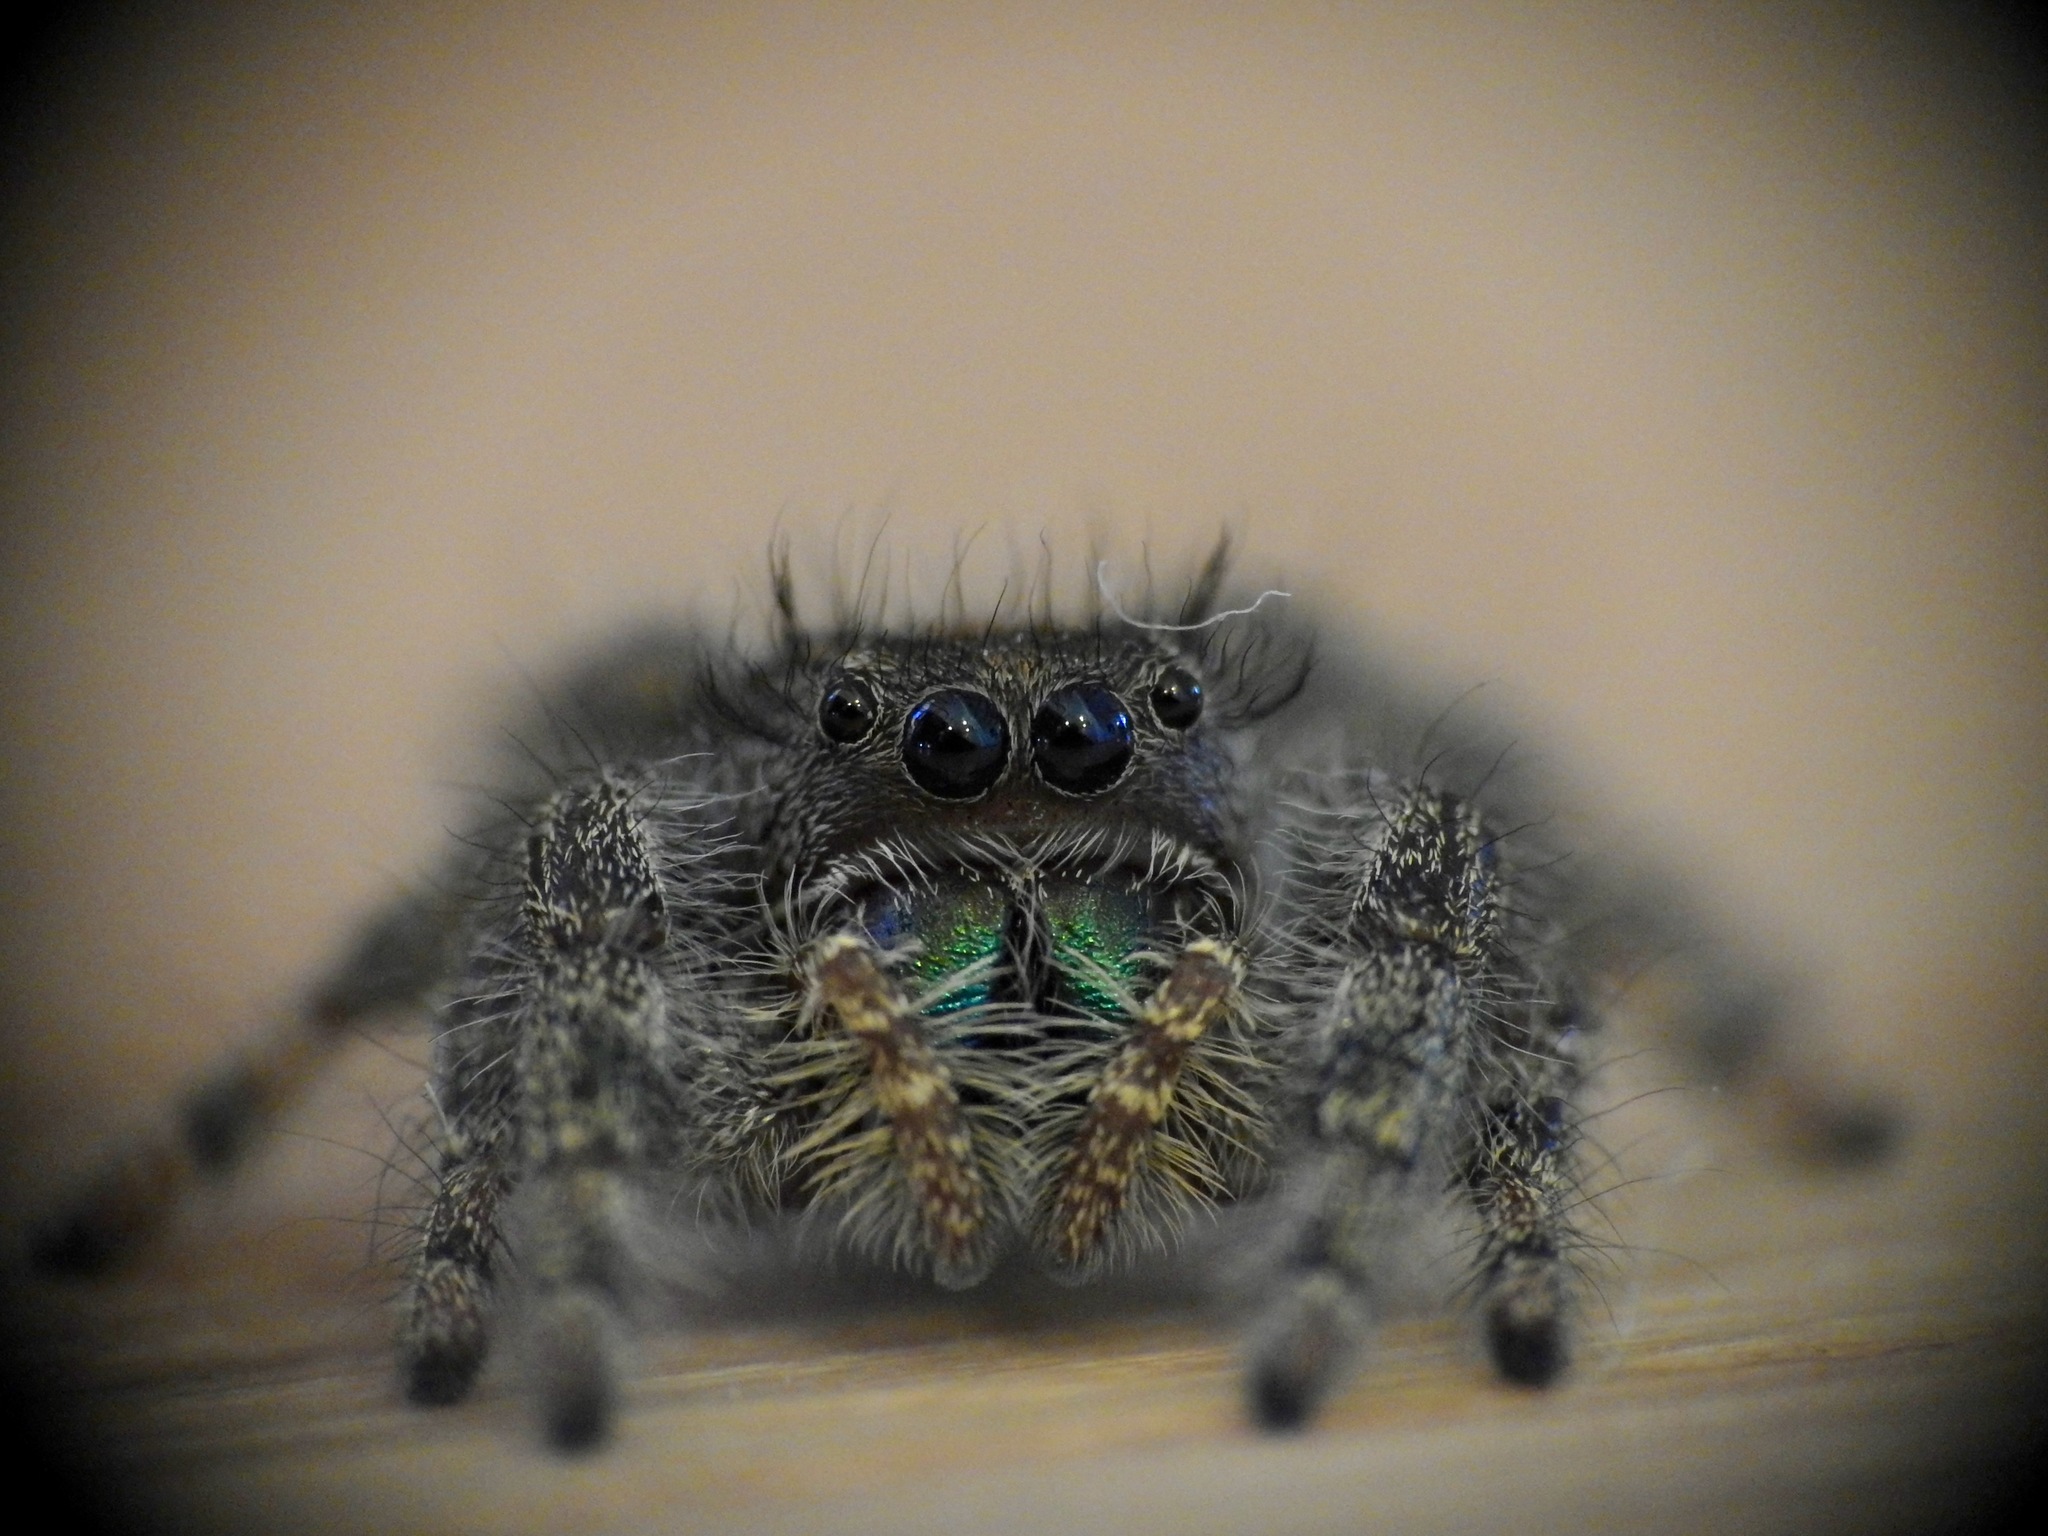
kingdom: Animalia
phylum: Arthropoda
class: Arachnida
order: Araneae
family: Salticidae
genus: Phidippus
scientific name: Phidippus audax
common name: Bold jumper
